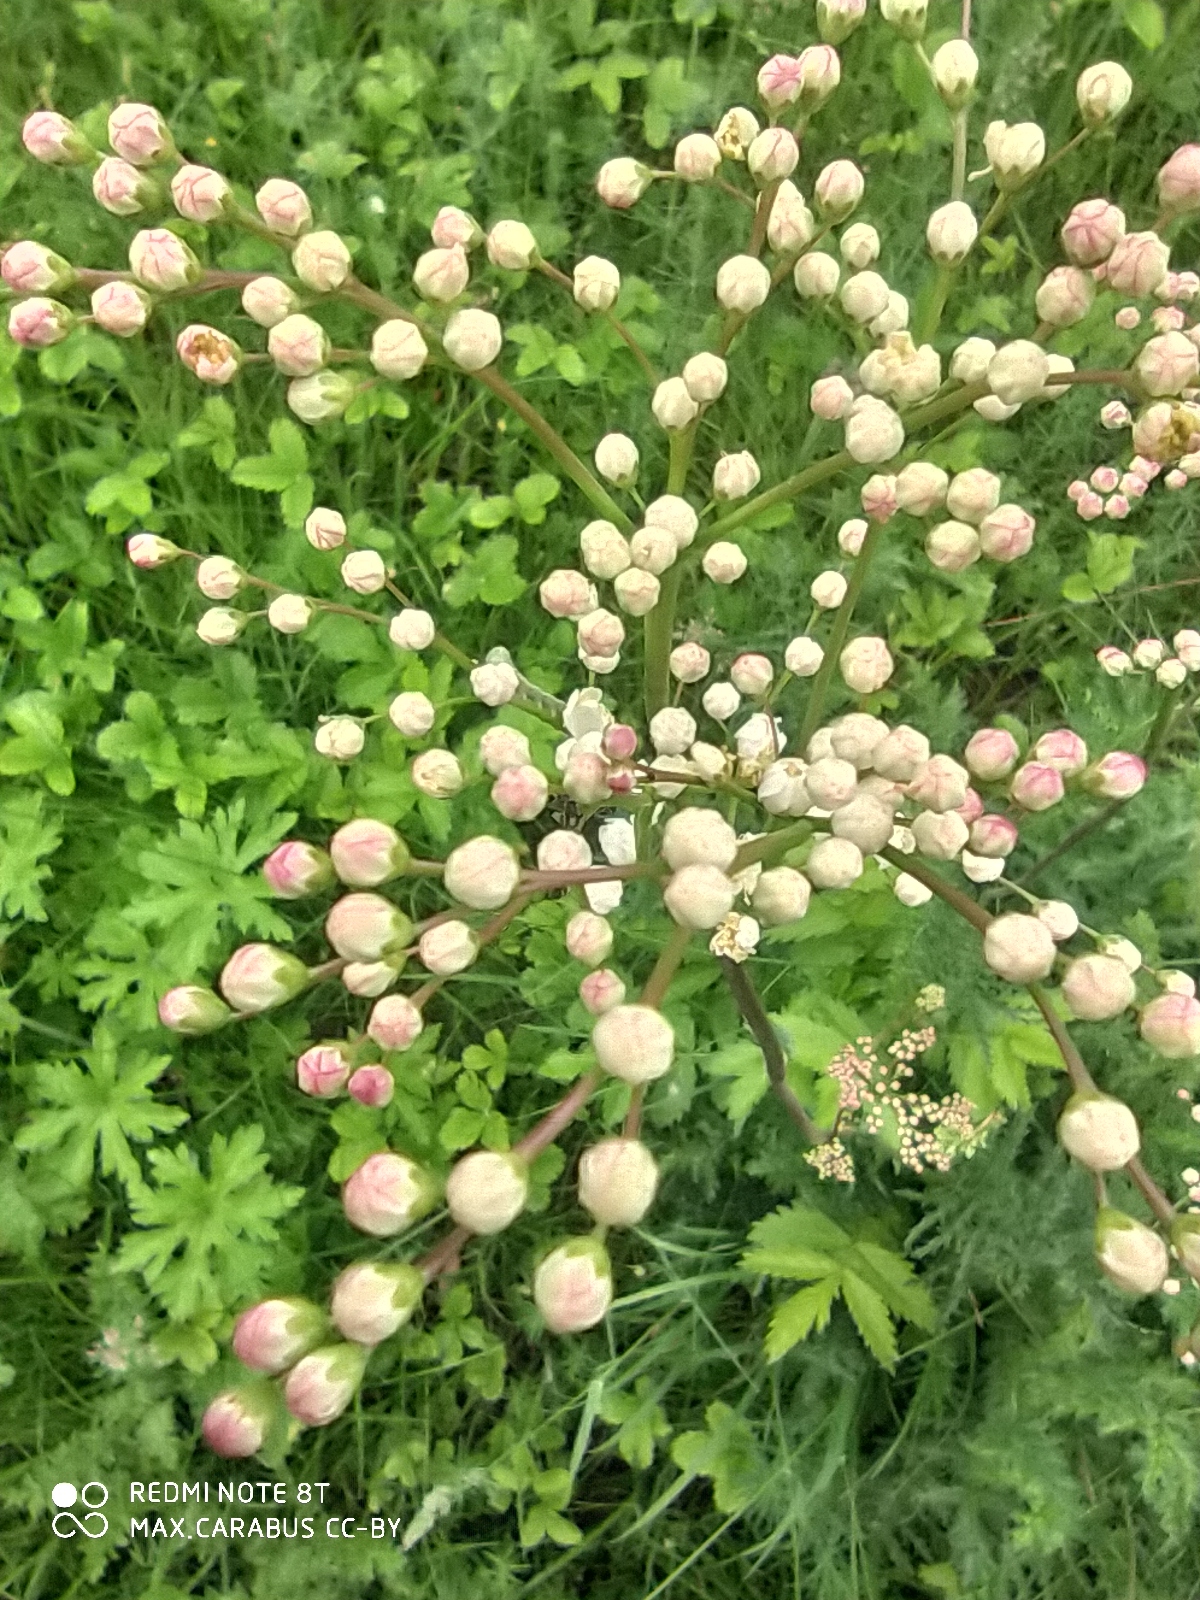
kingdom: Plantae
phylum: Tracheophyta
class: Magnoliopsida
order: Rosales
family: Rosaceae
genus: Filipendula
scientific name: Filipendula vulgaris
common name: Dropwort
